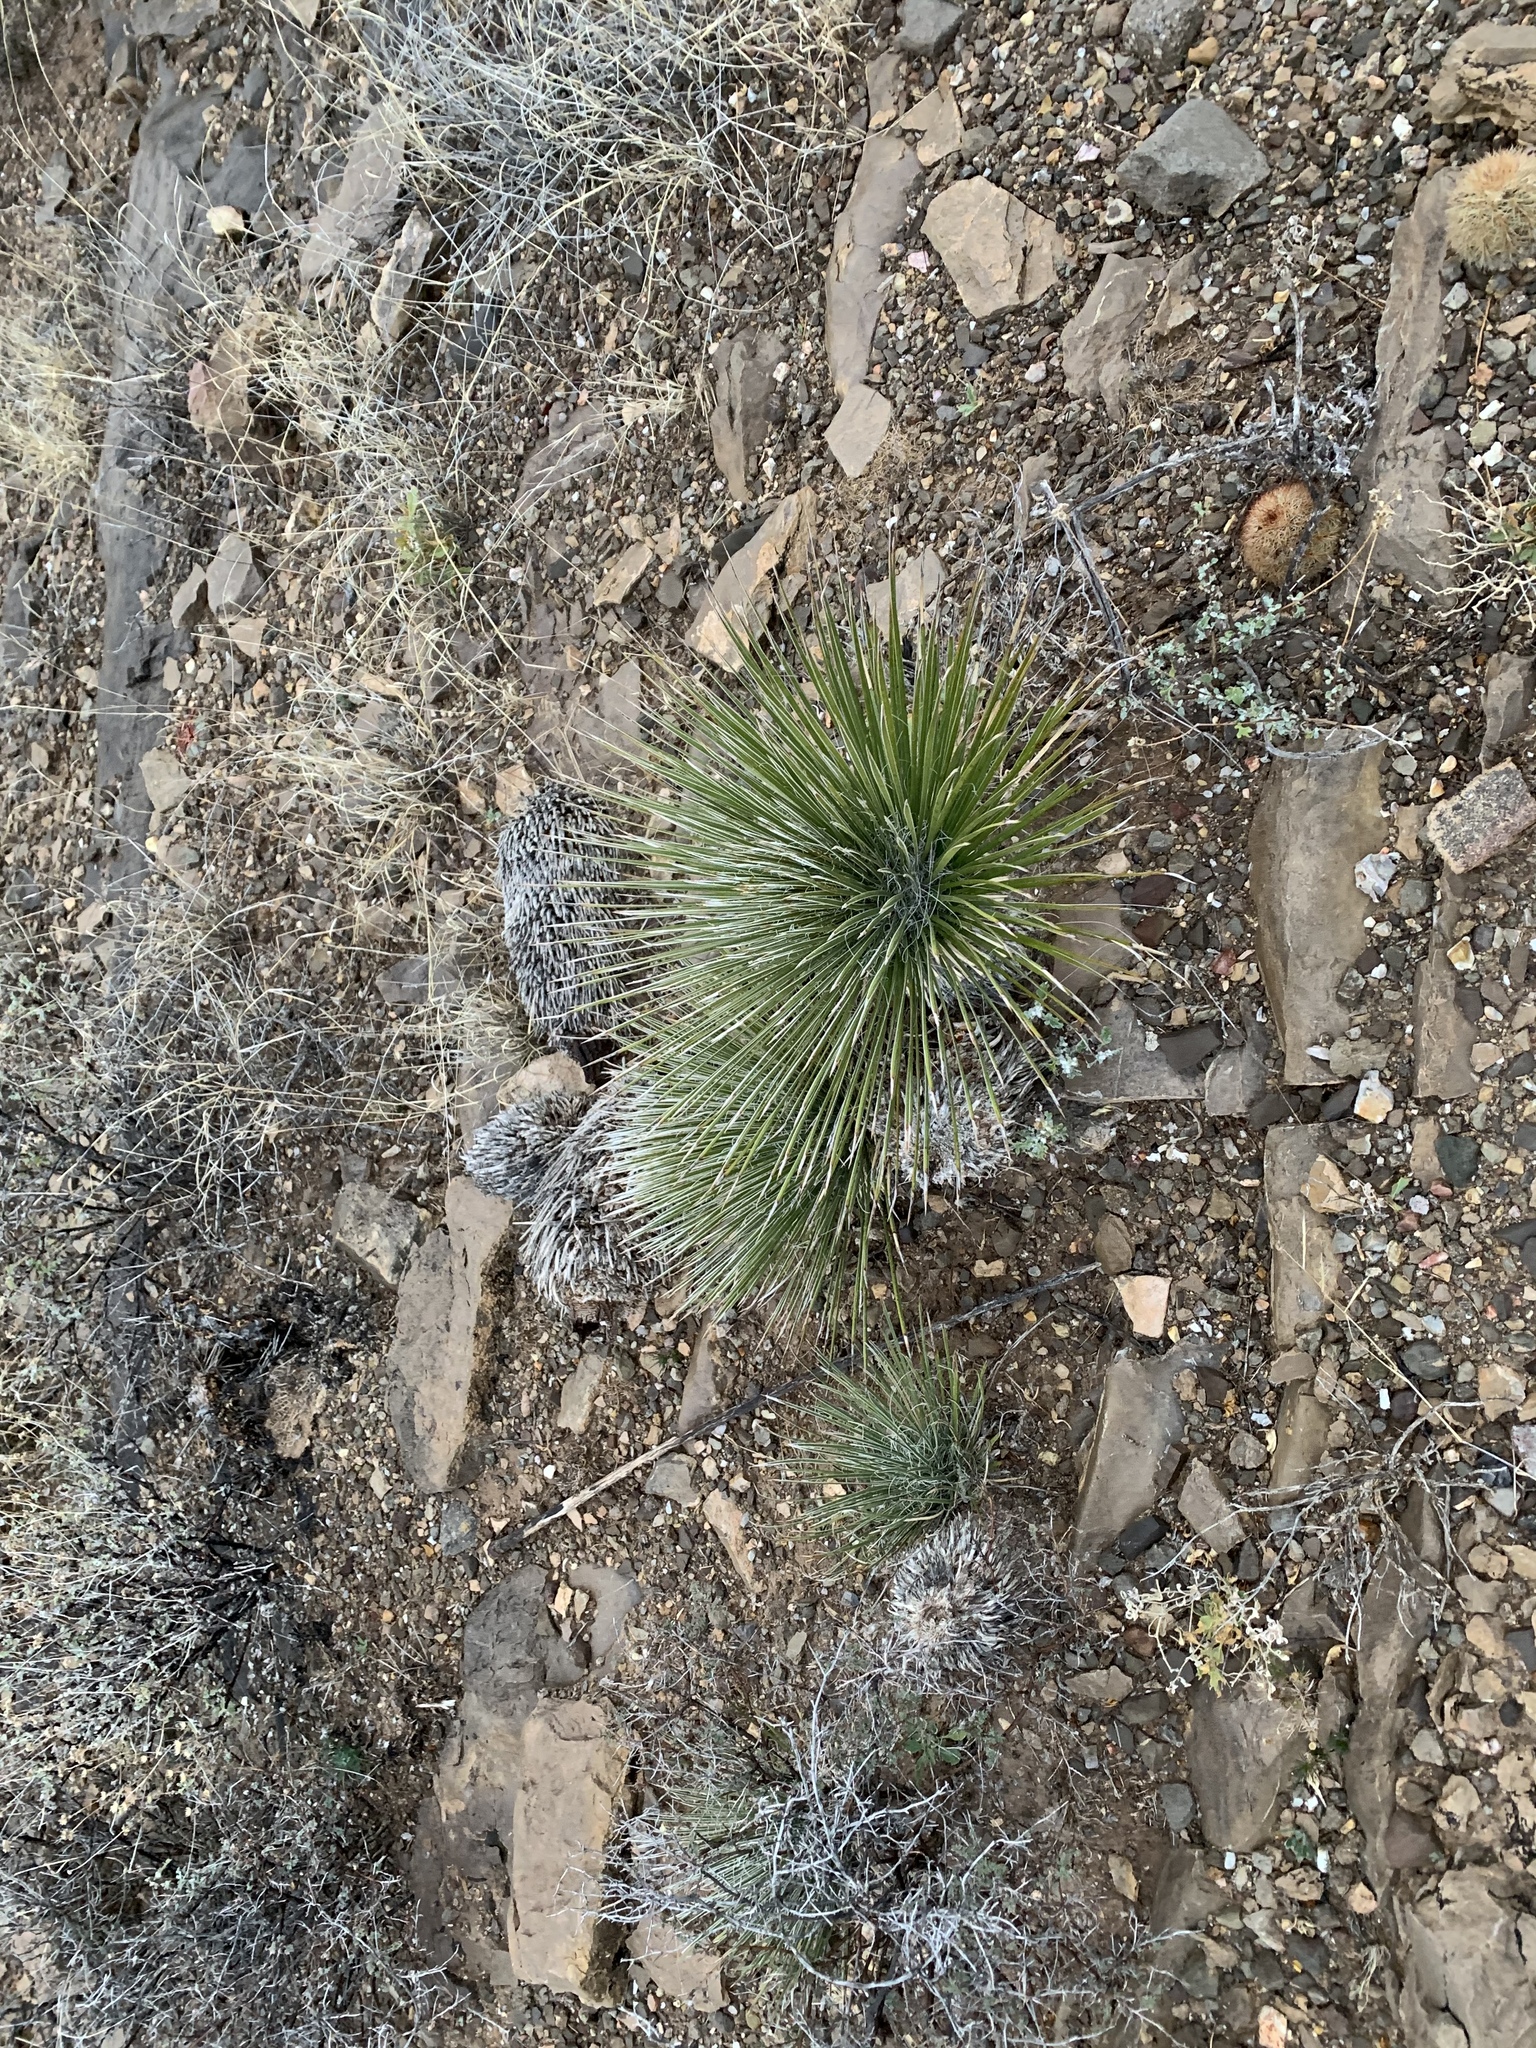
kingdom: Plantae
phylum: Tracheophyta
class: Liliopsida
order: Asparagales
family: Asparagaceae
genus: Yucca
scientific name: Yucca elata
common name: Palmella
